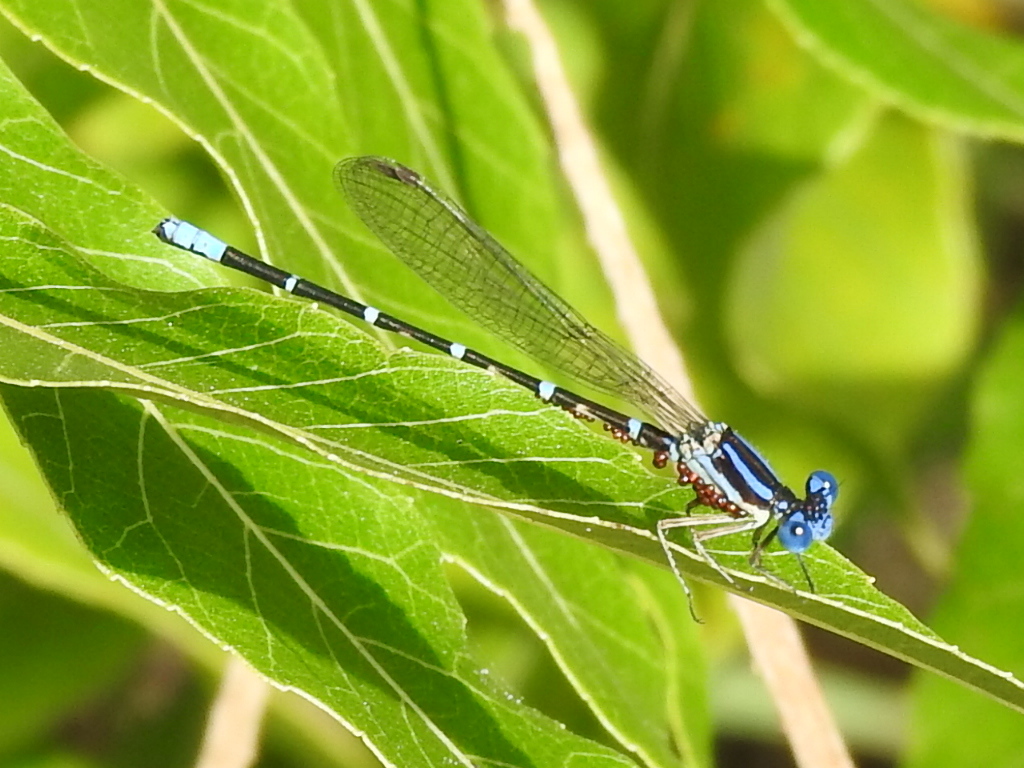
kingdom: Animalia
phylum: Arthropoda
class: Insecta
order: Odonata
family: Coenagrionidae
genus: Argia
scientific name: Argia sedula
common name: Blue-ringed dancer
